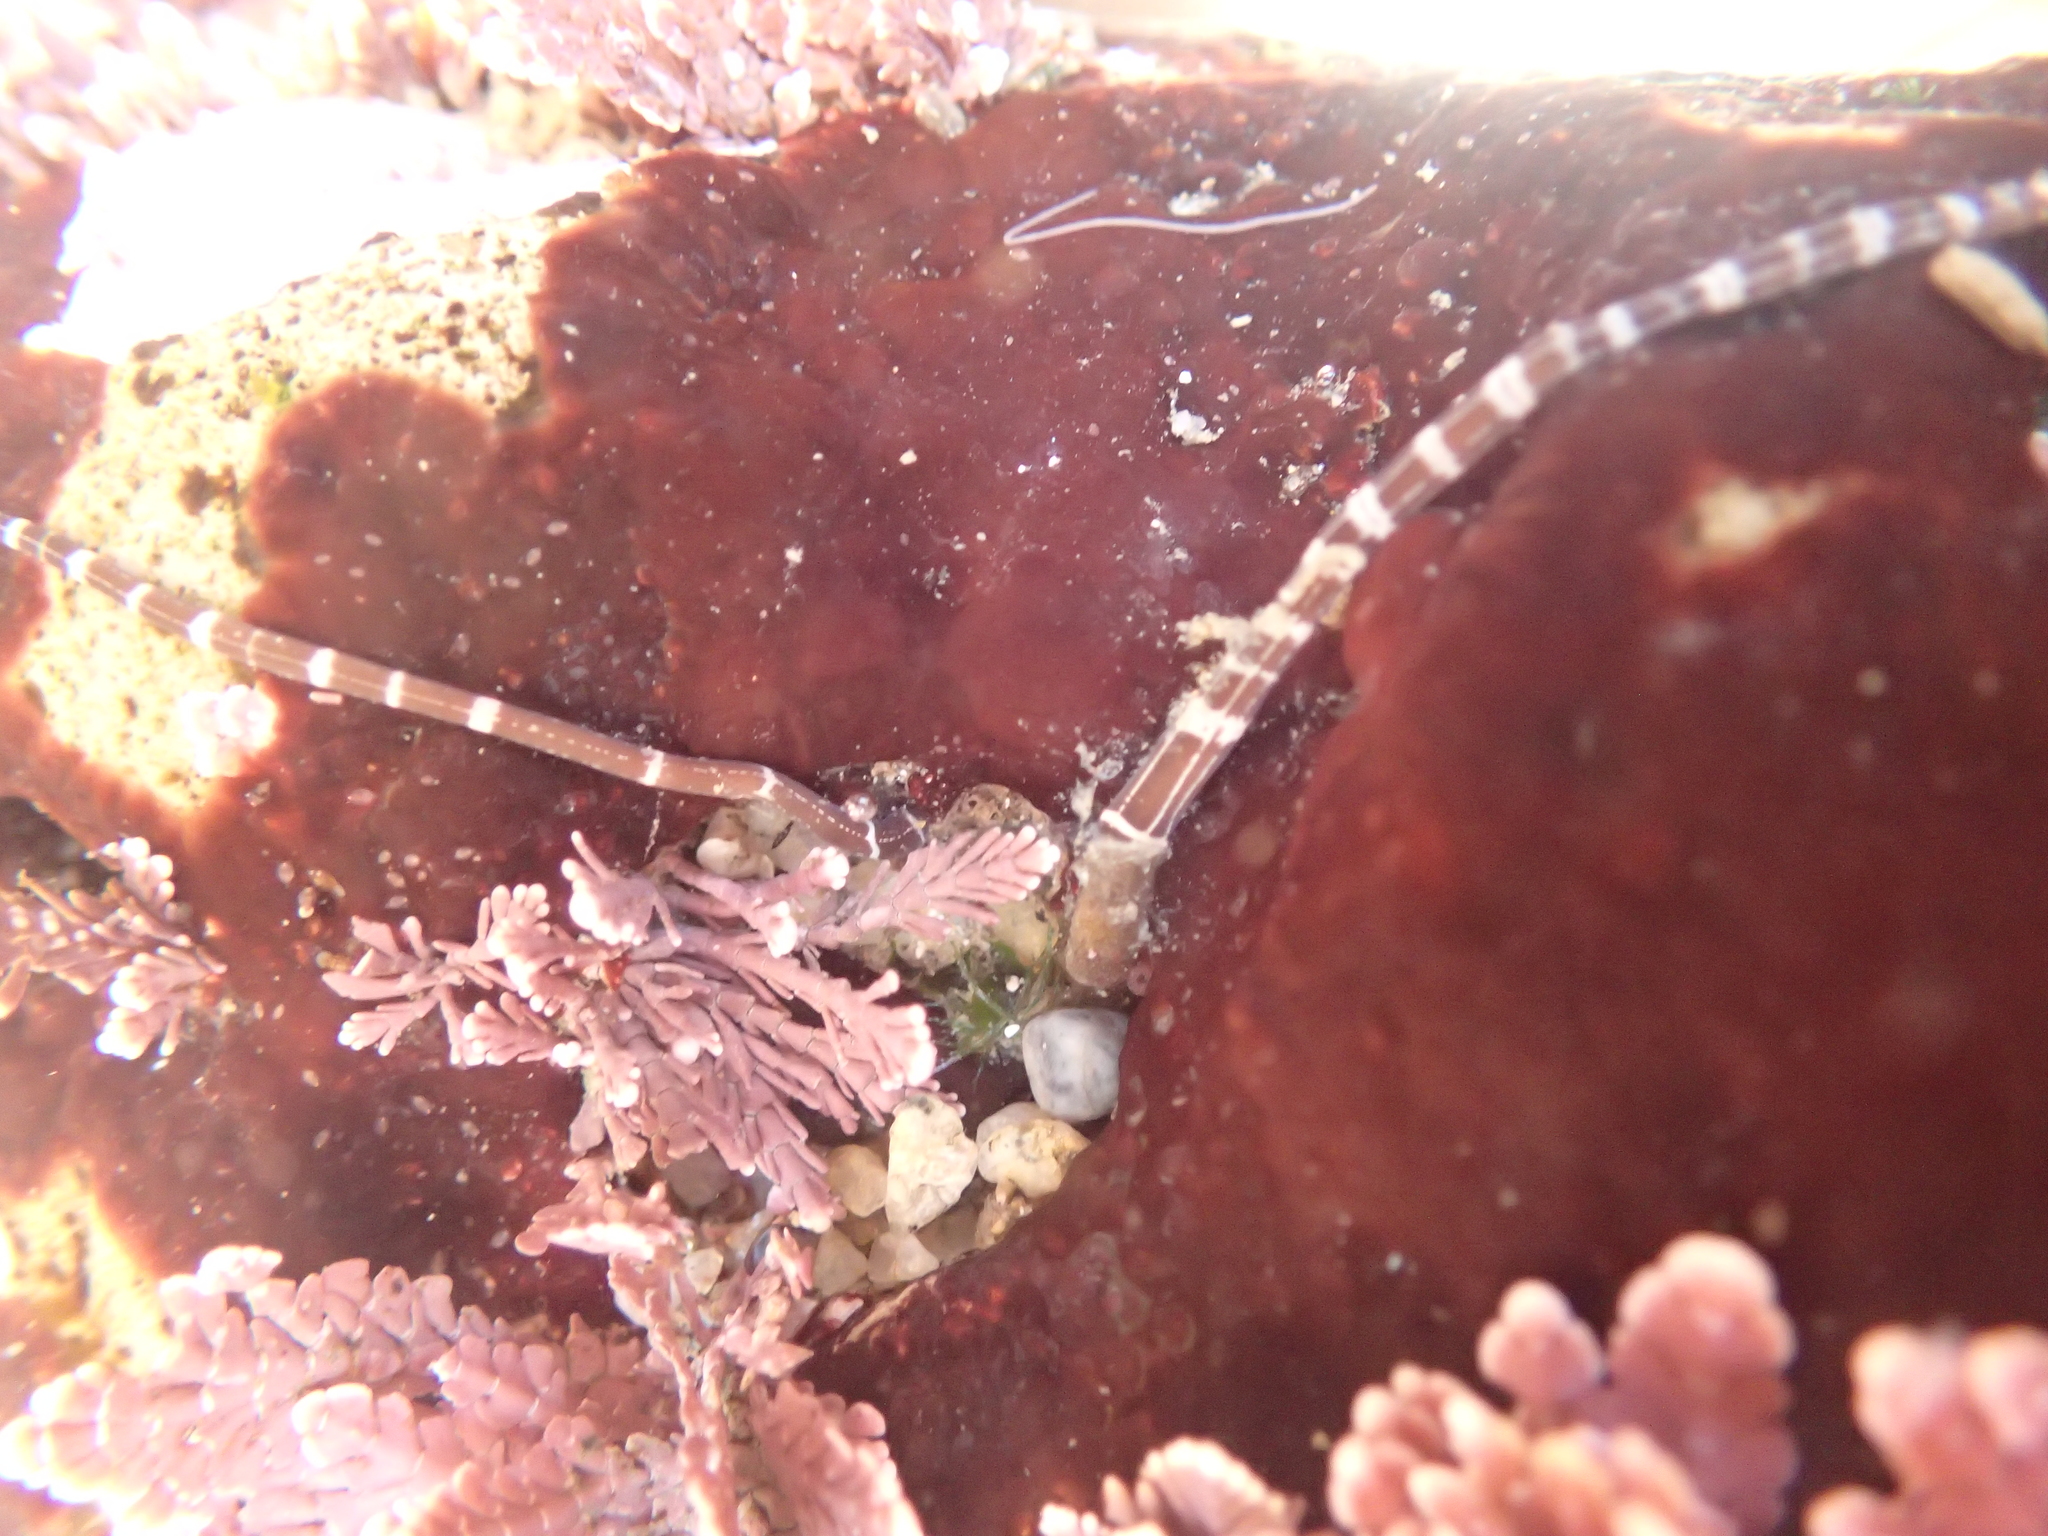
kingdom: Animalia
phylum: Nemertea
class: Palaeonemertea
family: Tubulanidae
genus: Tubulanus
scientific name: Tubulanus sexlineatus
